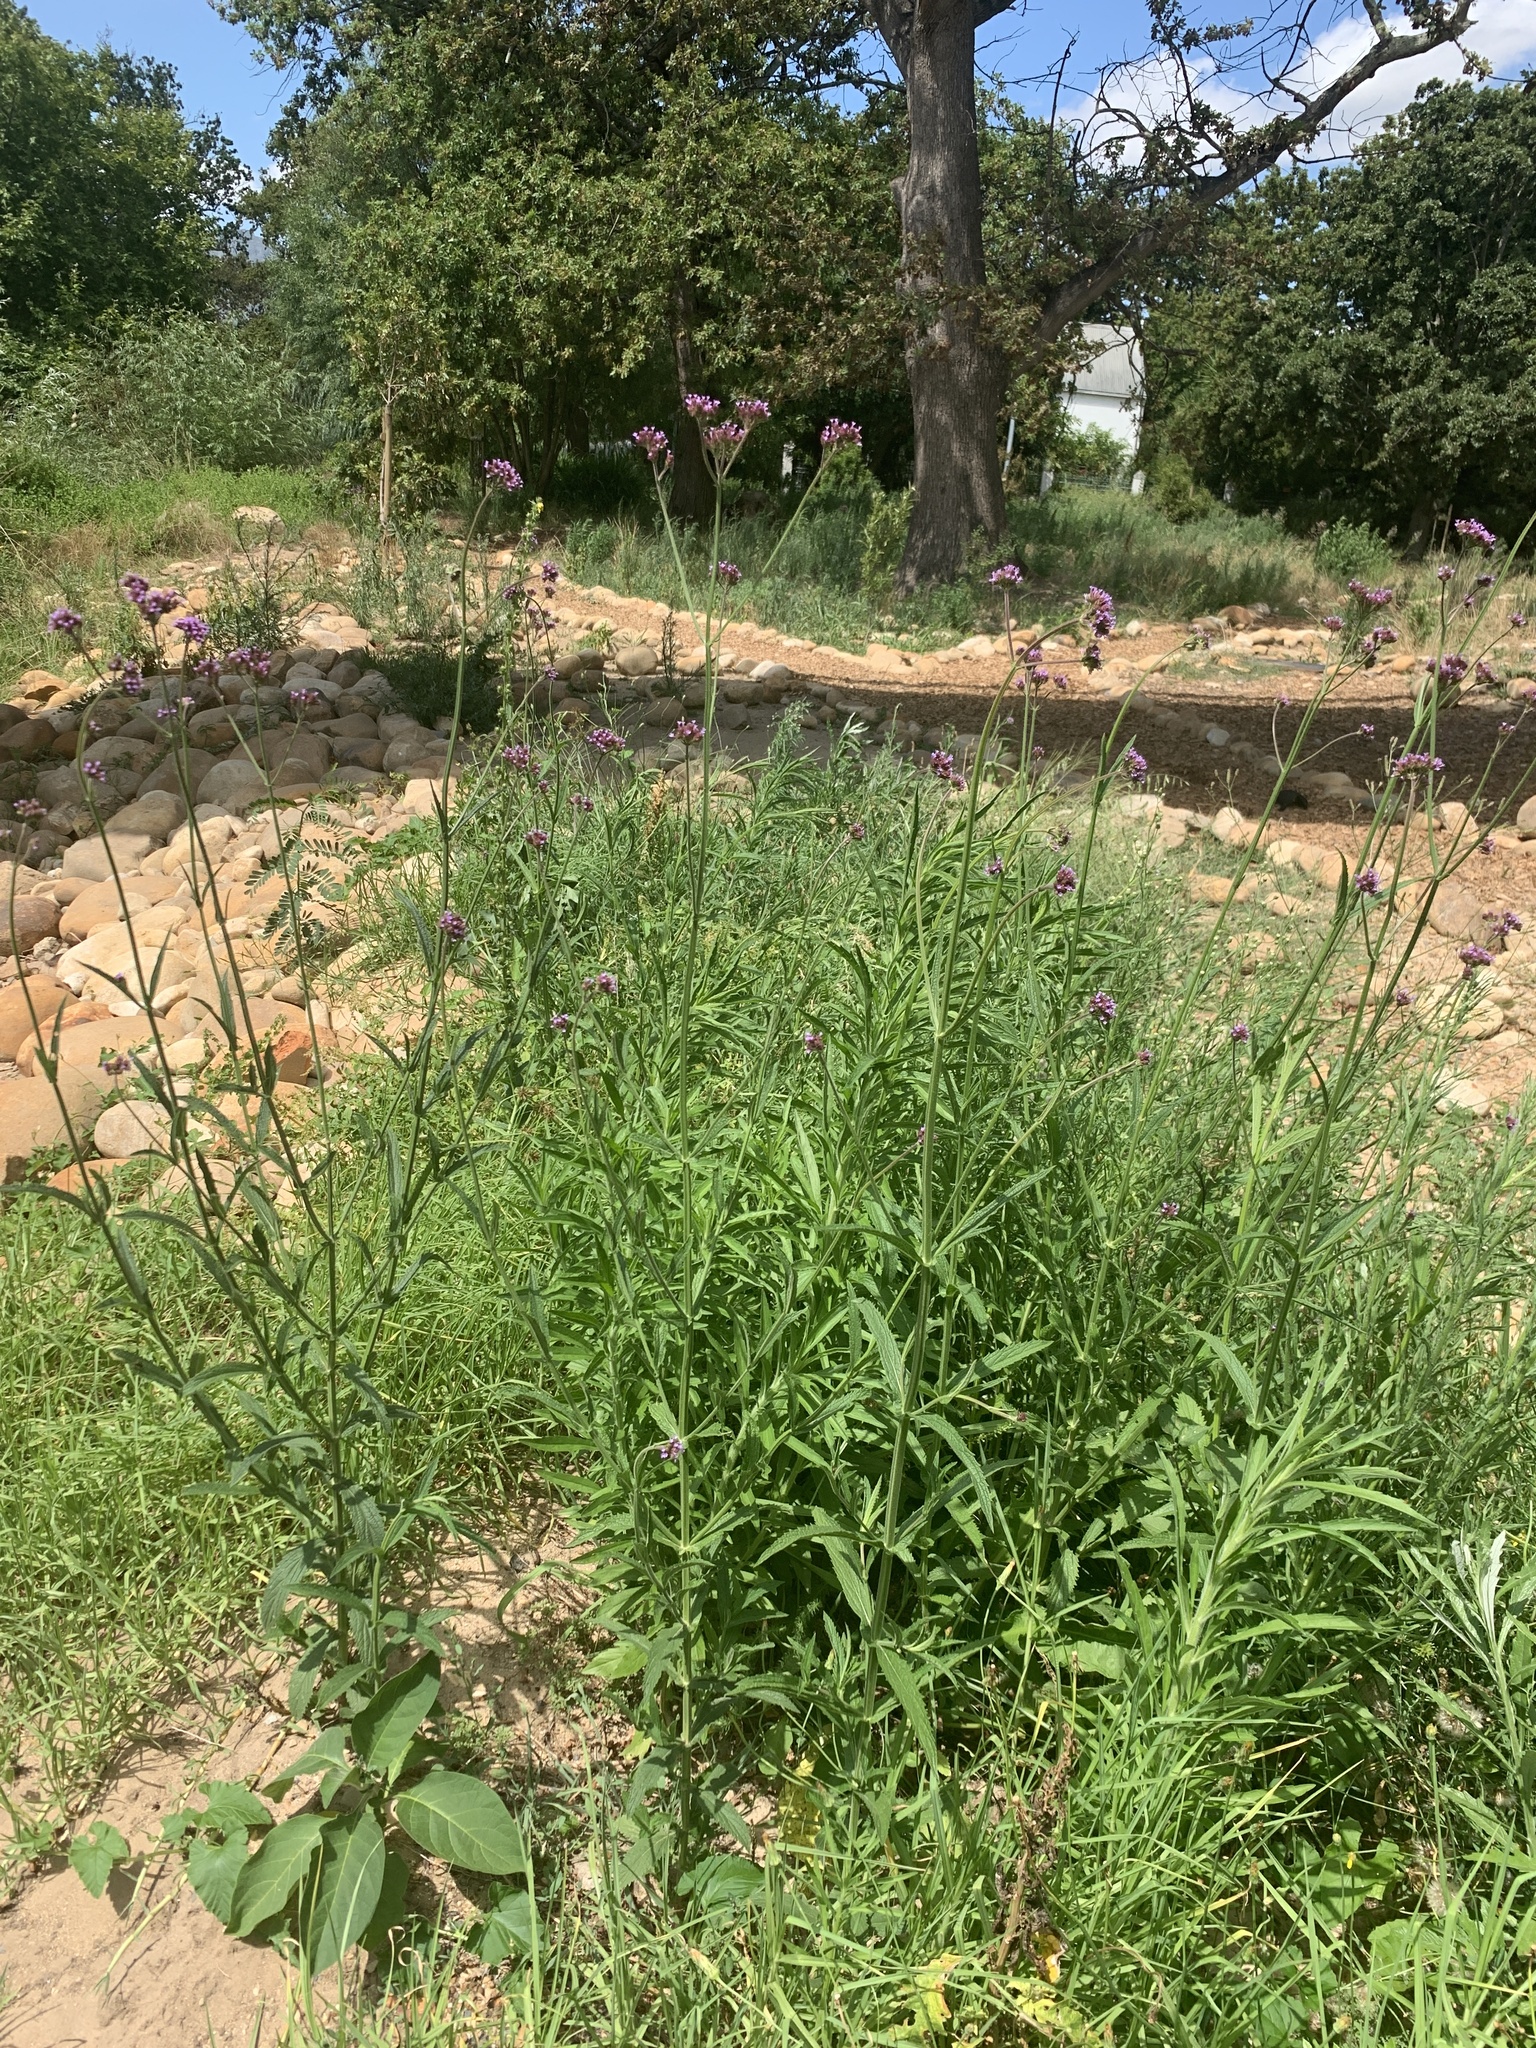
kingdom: Plantae
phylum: Tracheophyta
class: Magnoliopsida
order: Lamiales
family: Verbenaceae
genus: Verbena
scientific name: Verbena bonariensis
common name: Purpletop vervain
